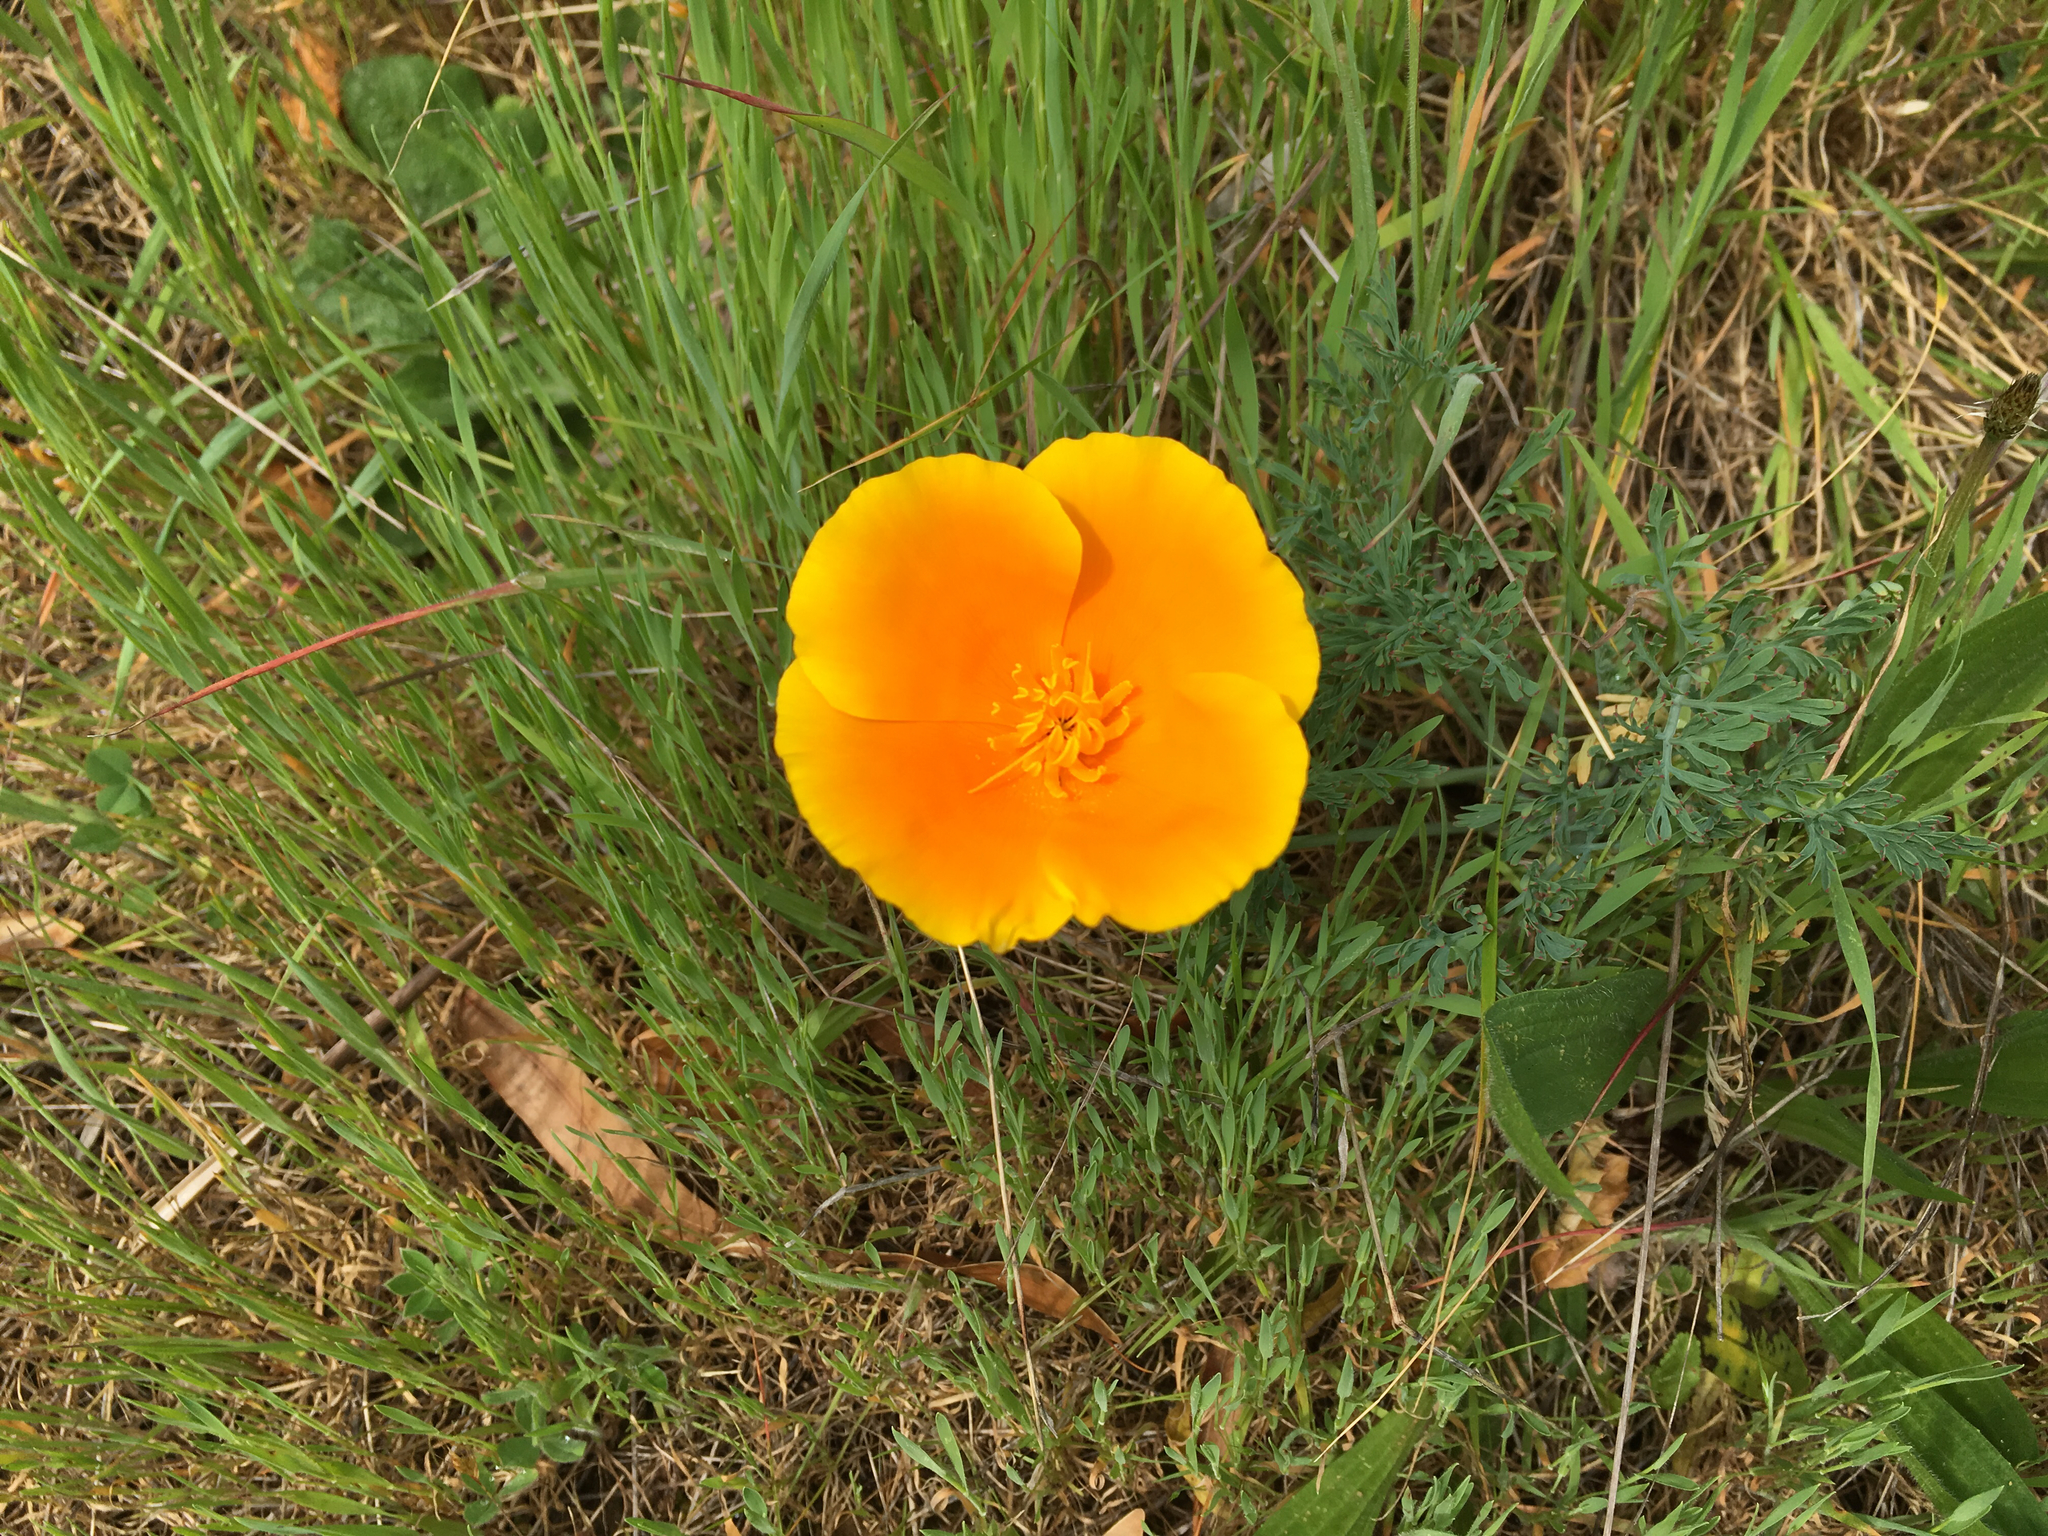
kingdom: Plantae
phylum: Tracheophyta
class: Magnoliopsida
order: Ranunculales
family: Papaveraceae
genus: Eschscholzia
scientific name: Eschscholzia californica
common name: California poppy
